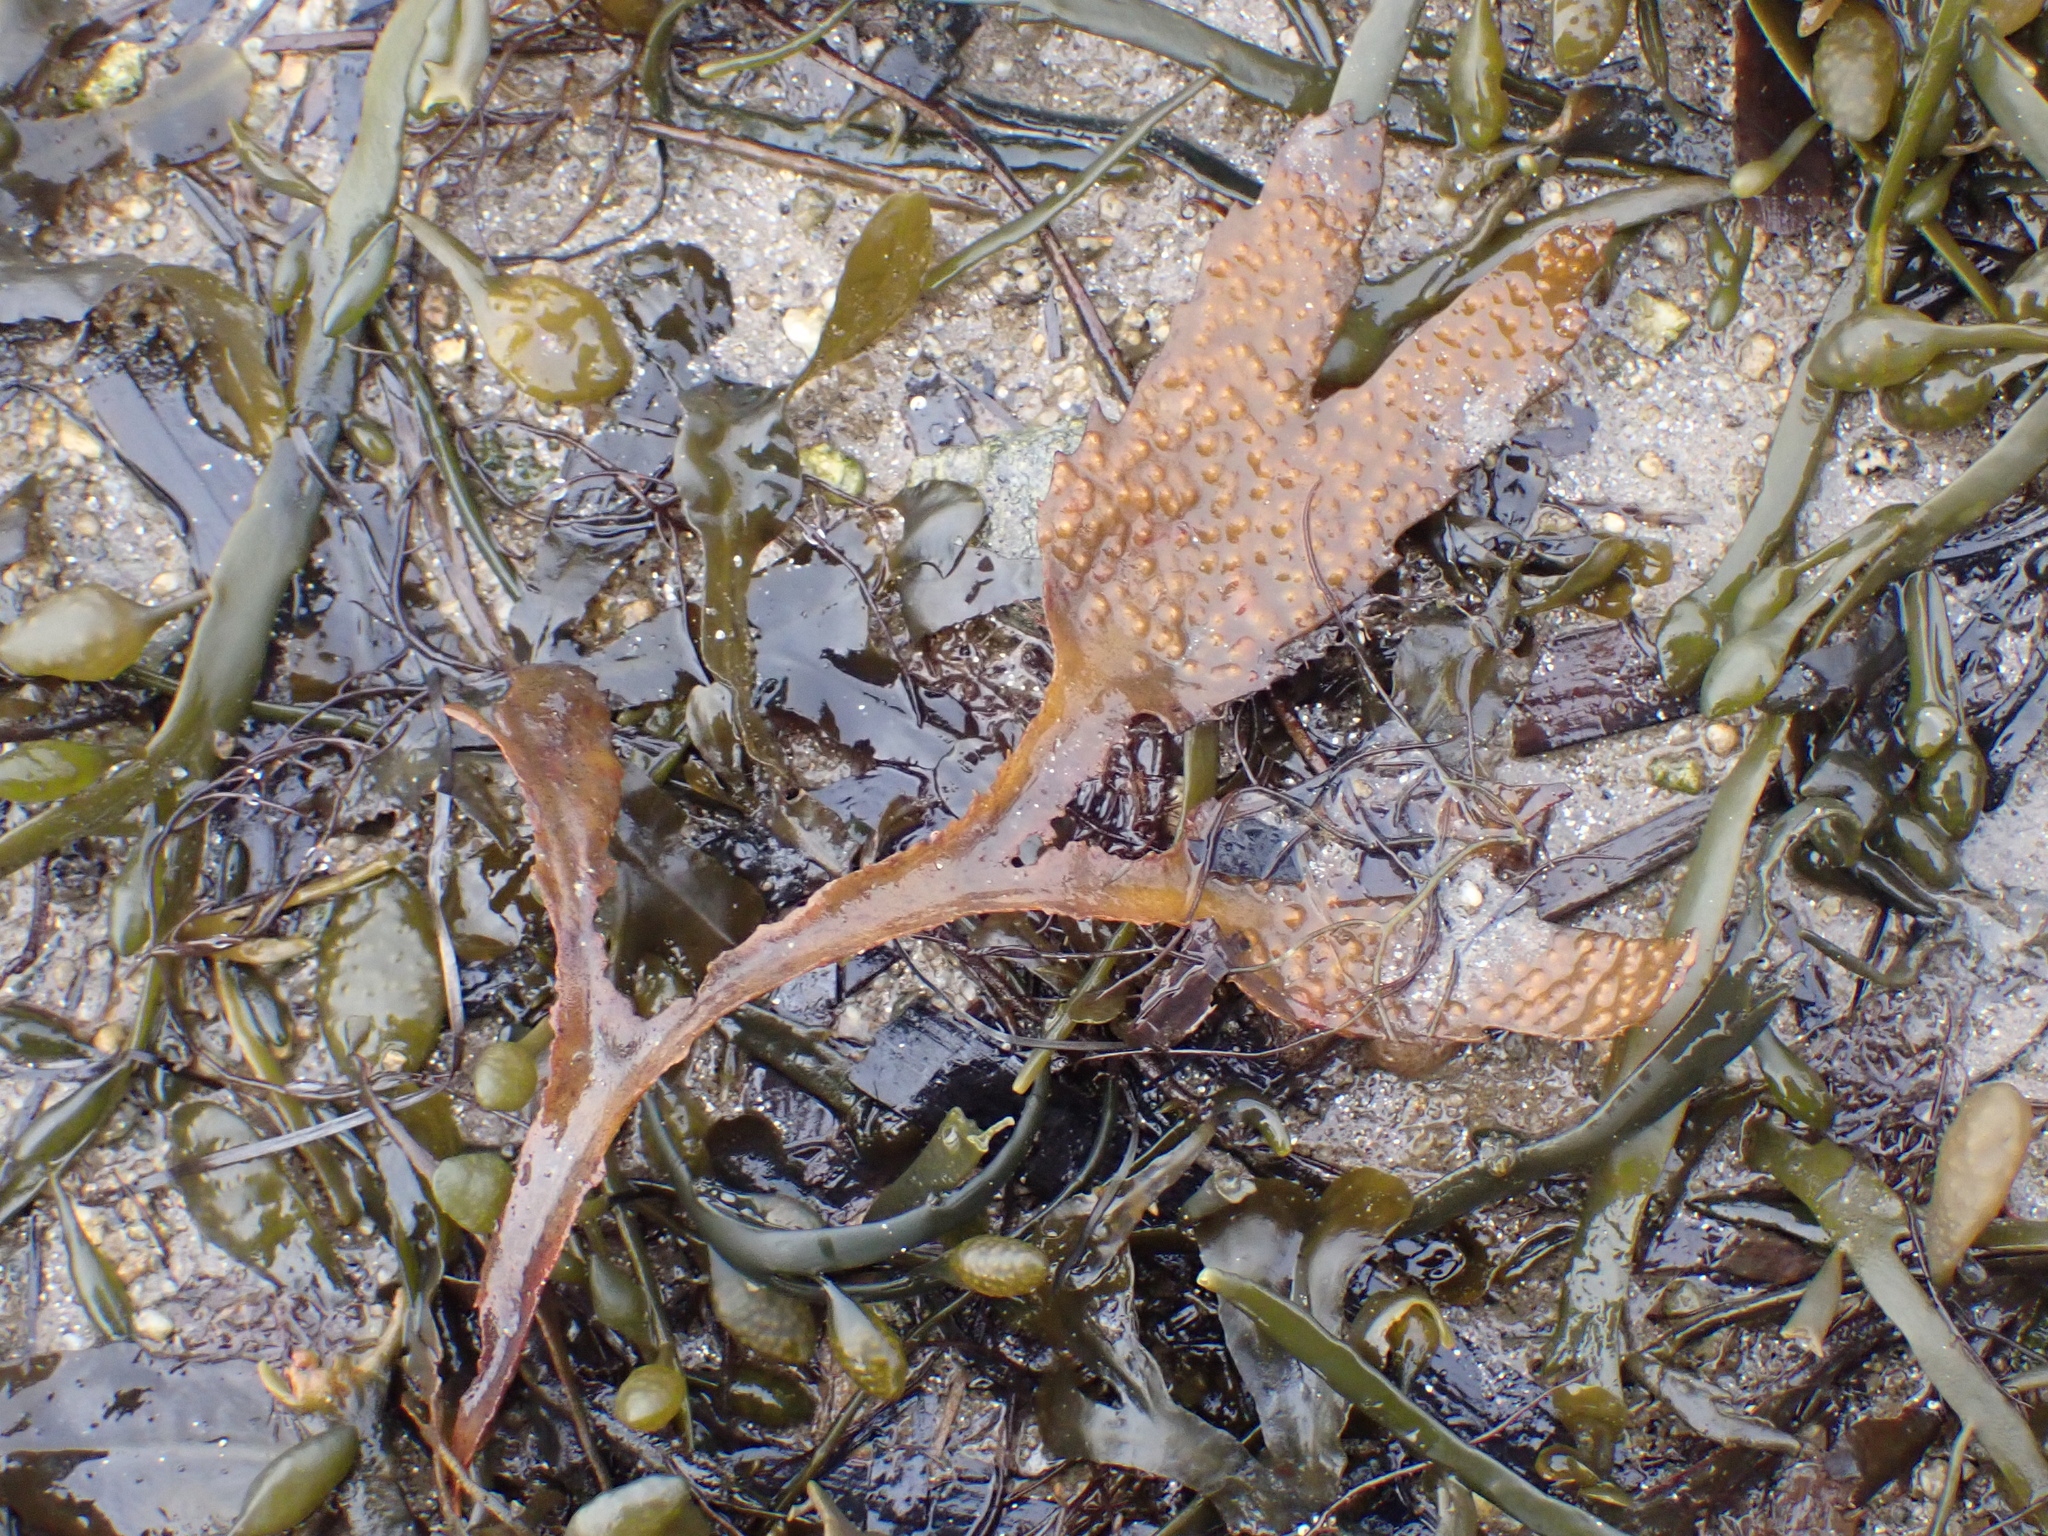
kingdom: Chromista
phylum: Ochrophyta
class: Phaeophyceae
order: Fucales
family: Fucaceae
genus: Fucus
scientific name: Fucus serratus
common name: Toothed wrack
